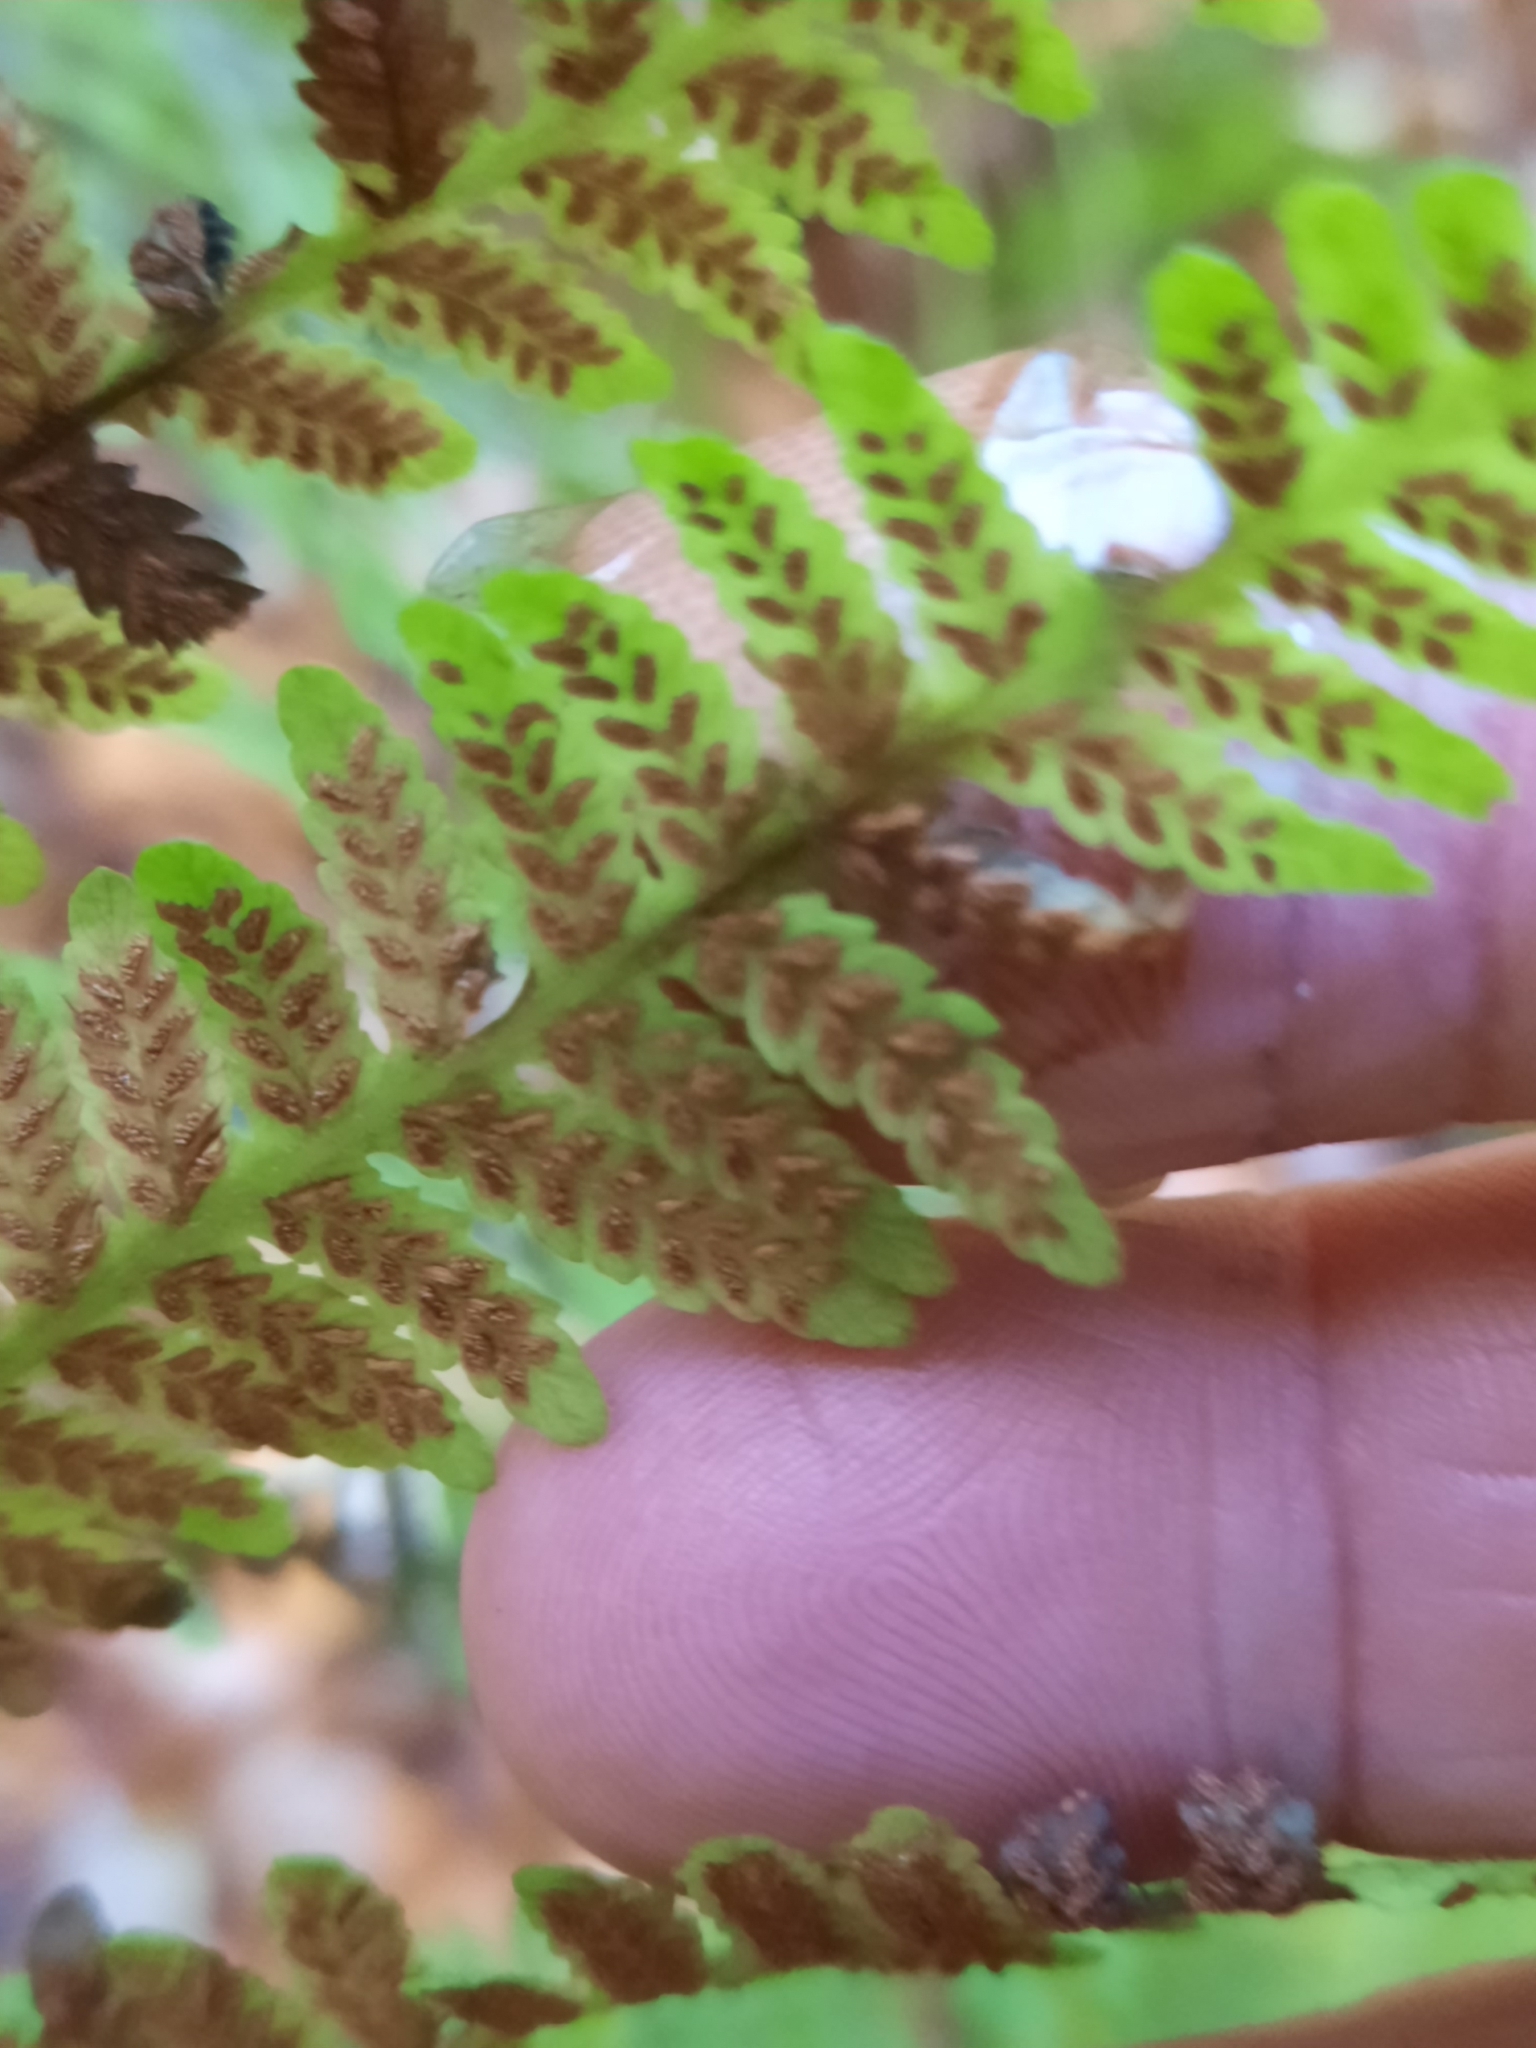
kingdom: Plantae
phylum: Tracheophyta
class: Polypodiopsida
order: Polypodiales
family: Athyriaceae
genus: Deparia
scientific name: Deparia acrostichoides
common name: Silver false spleenwort
